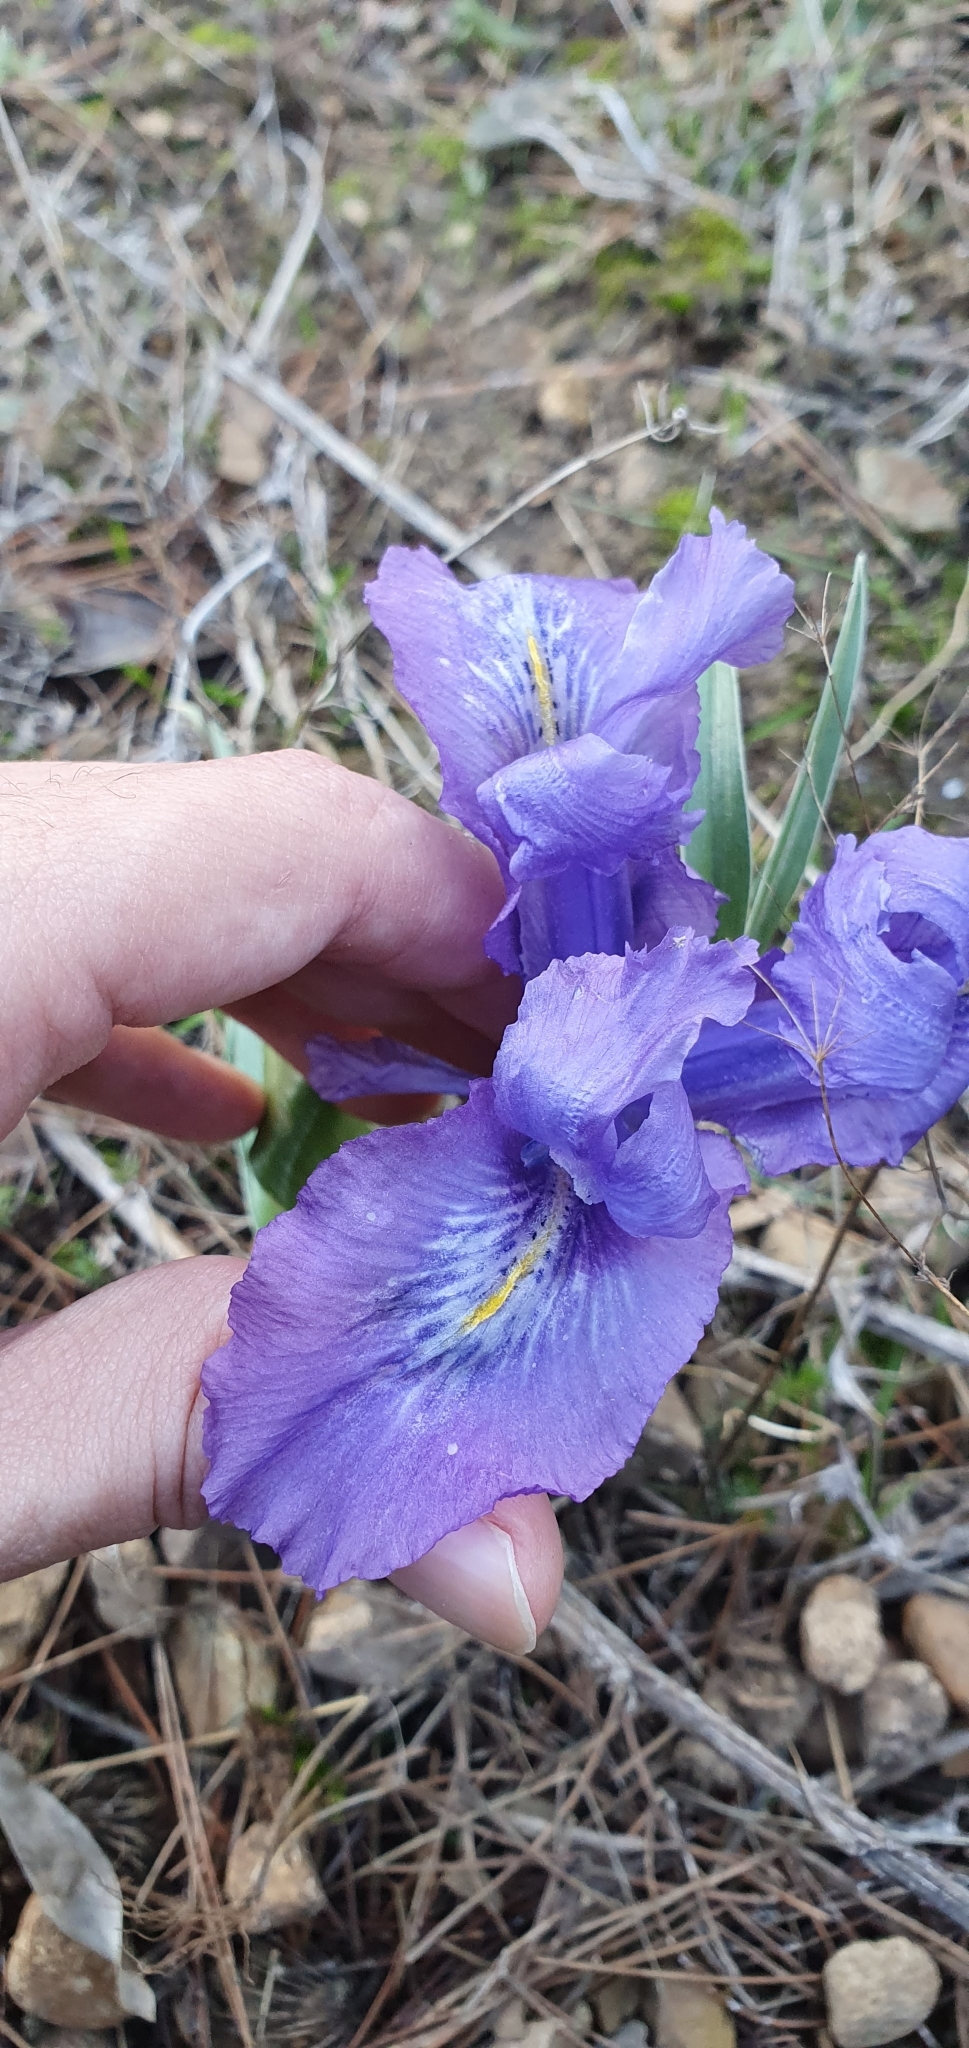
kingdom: Plantae
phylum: Tracheophyta
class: Liliopsida
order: Asparagales
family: Iridaceae
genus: Iris
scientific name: Iris planifolia
